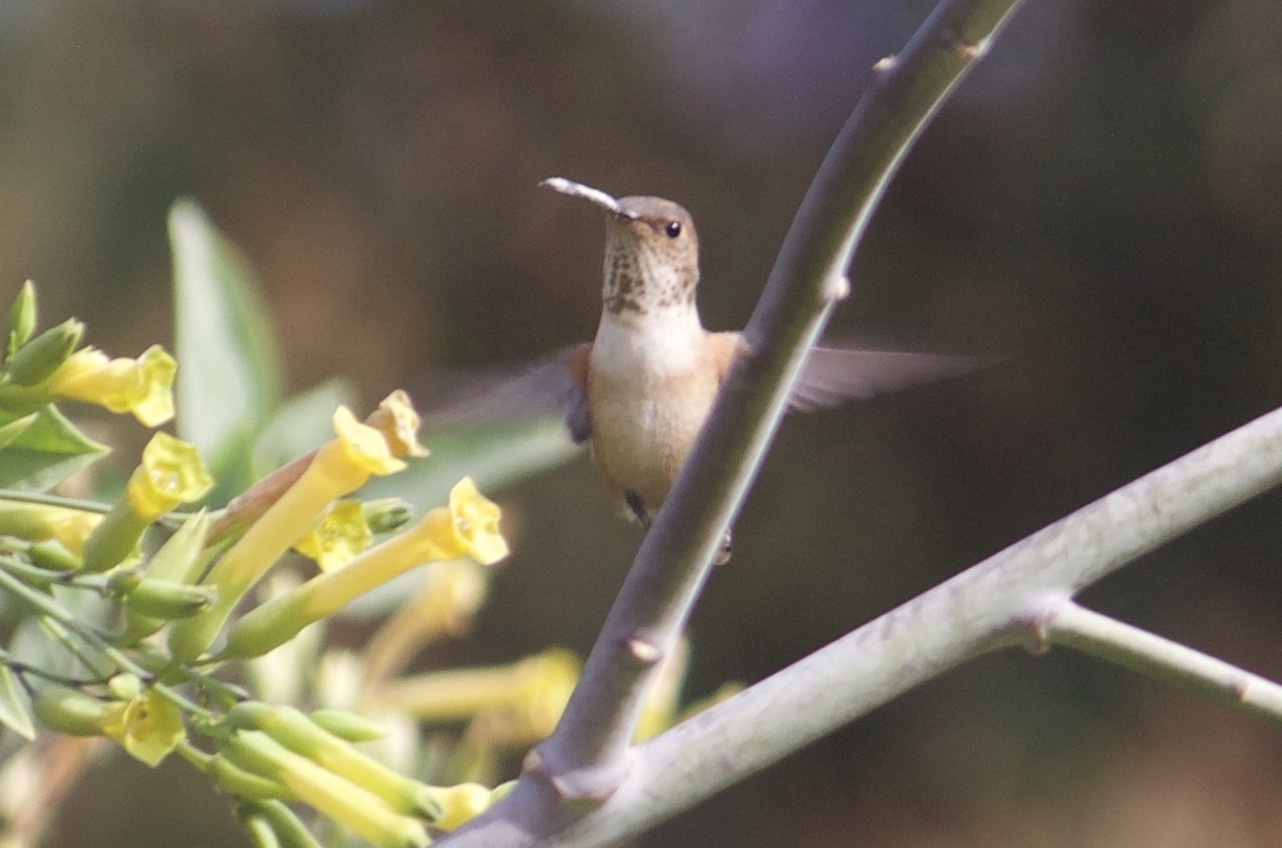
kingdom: Animalia
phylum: Chordata
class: Aves
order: Apodiformes
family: Trochilidae
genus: Selasphorus
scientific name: Selasphorus sasin
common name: Allen's hummingbird
